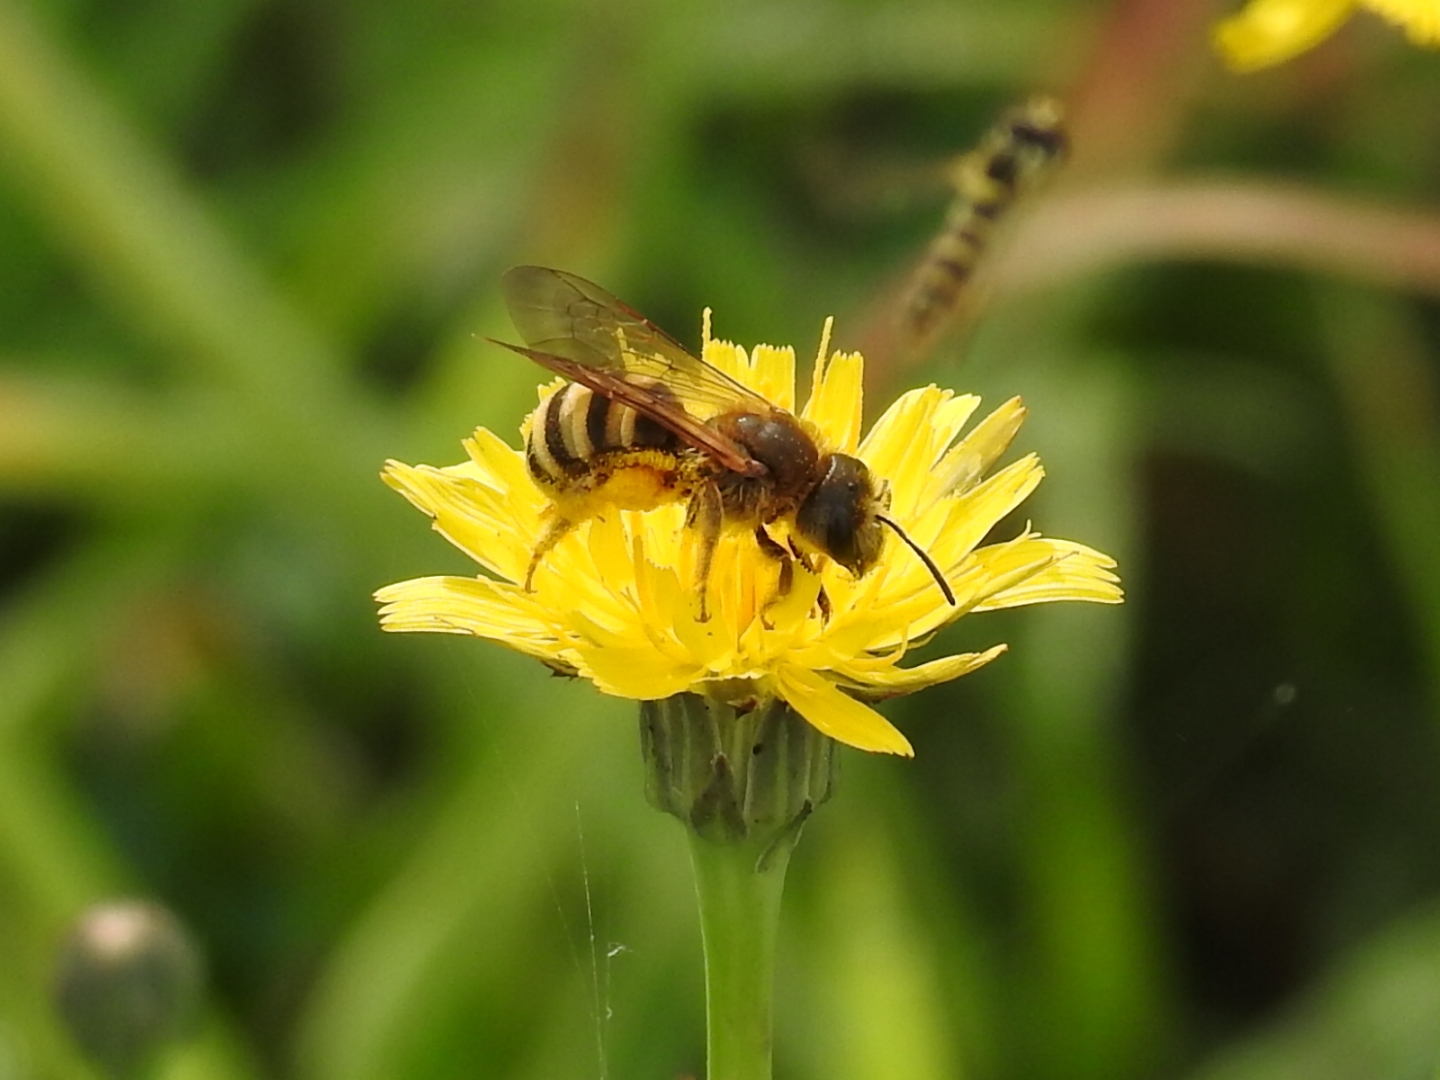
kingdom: Animalia
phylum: Arthropoda
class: Insecta
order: Hymenoptera
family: Halictidae
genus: Halictus
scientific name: Halictus scabiosae
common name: Great banded furrow bee
